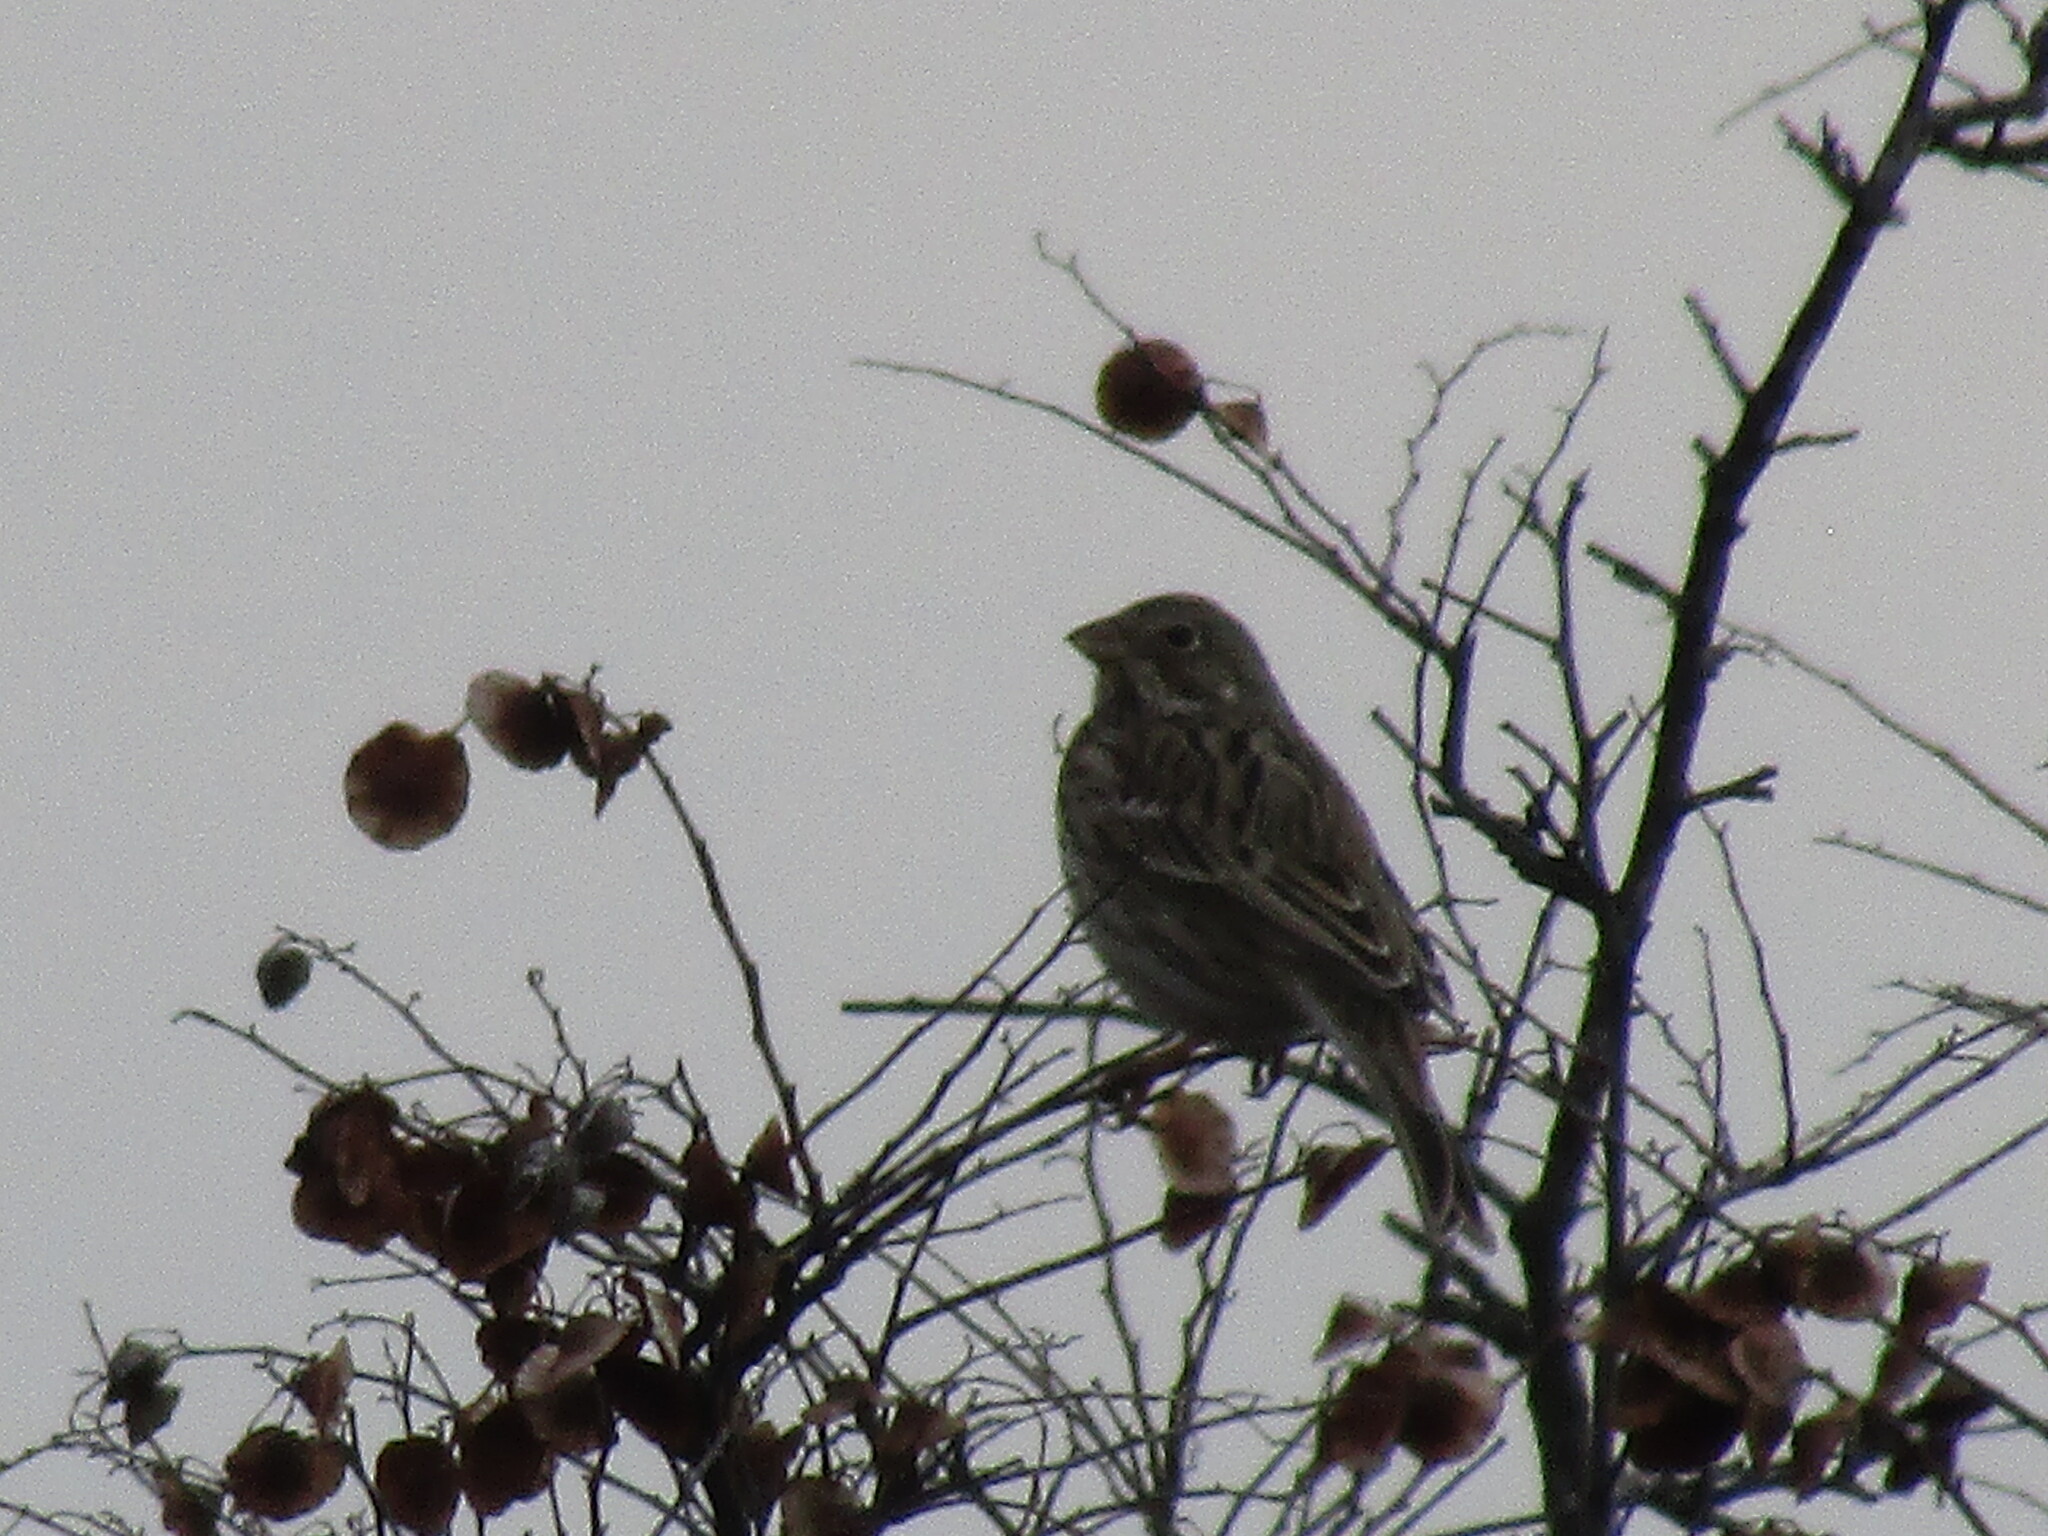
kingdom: Animalia
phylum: Chordata
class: Aves
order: Passeriformes
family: Emberizidae
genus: Emberiza
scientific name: Emberiza calandra
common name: Corn bunting
